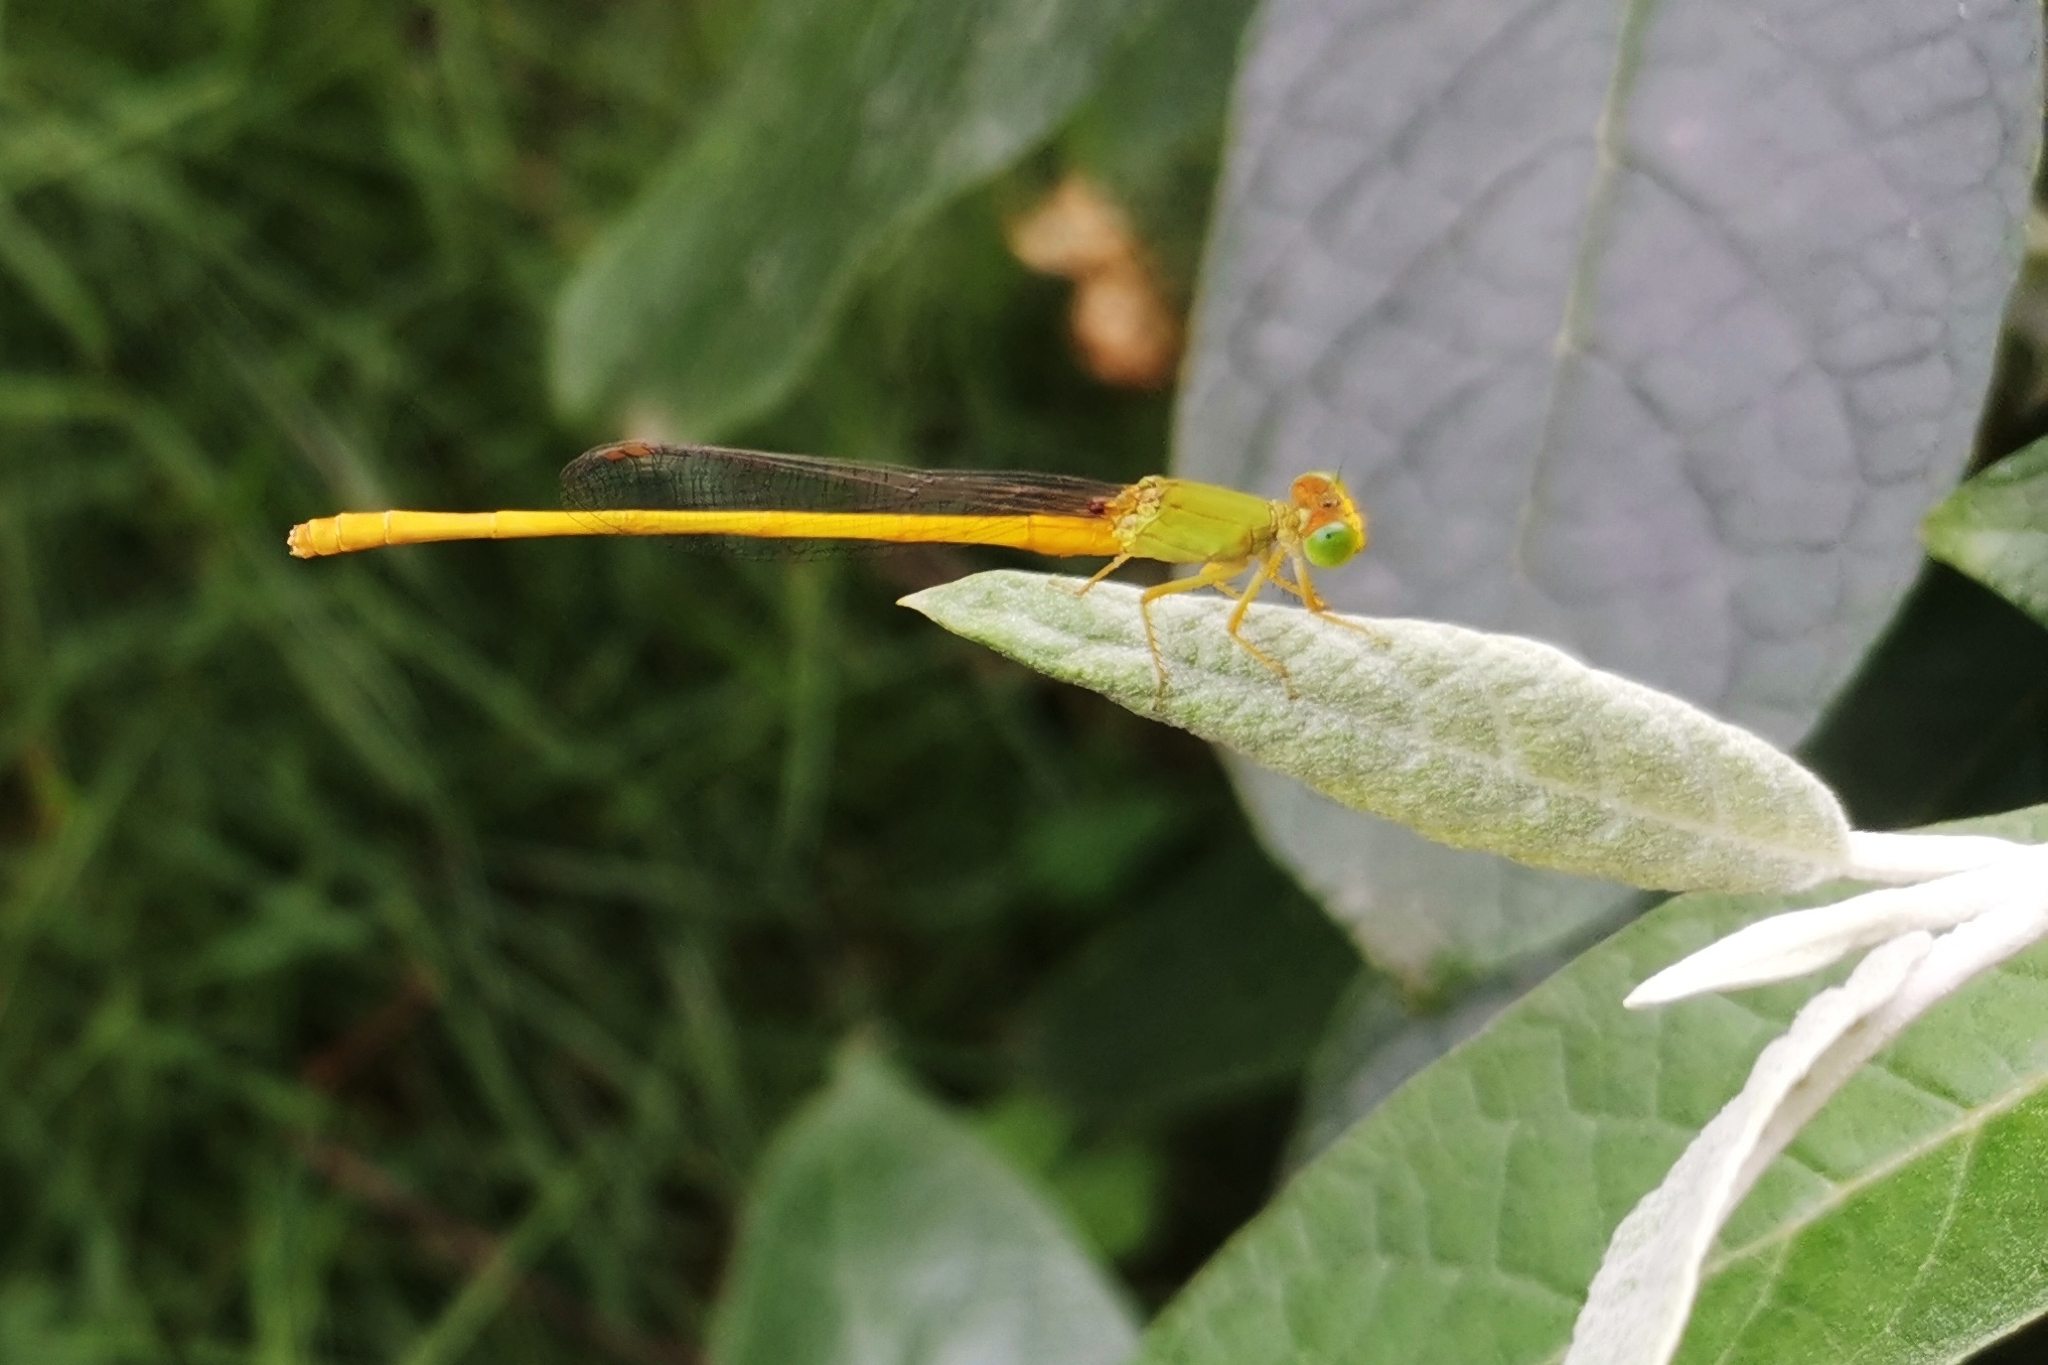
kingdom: Animalia
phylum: Arthropoda
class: Insecta
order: Odonata
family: Coenagrionidae
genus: Ceriagrion
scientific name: Ceriagrion coromandelianum
